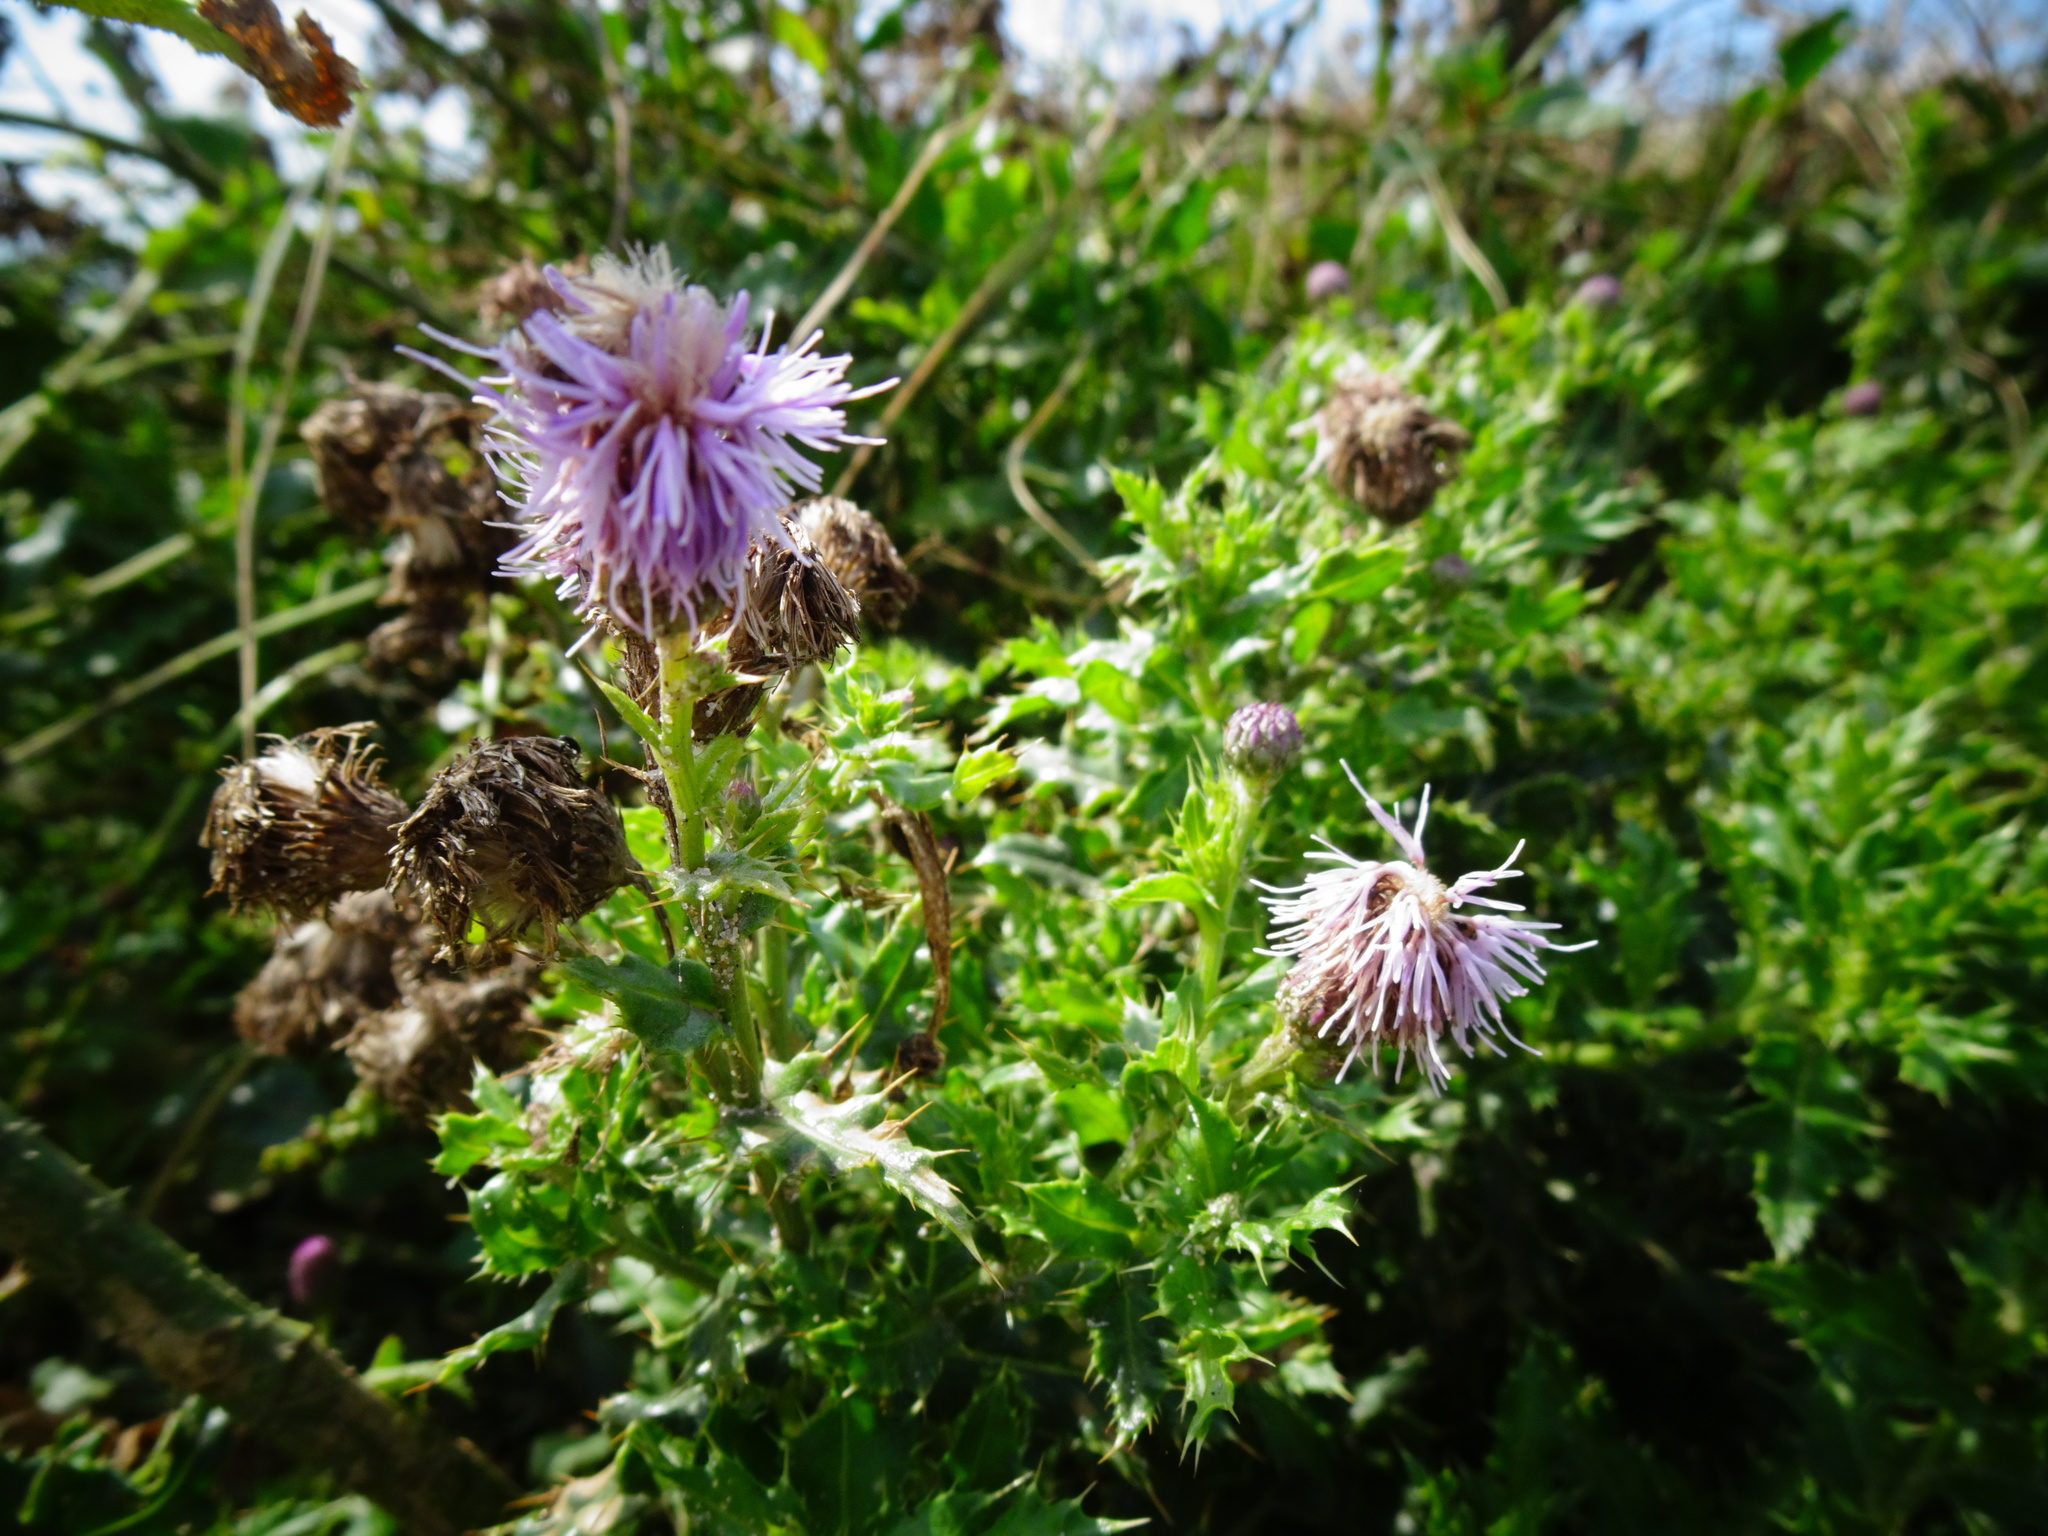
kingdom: Plantae
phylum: Tracheophyta
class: Magnoliopsida
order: Asterales
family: Asteraceae
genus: Cirsium
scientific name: Cirsium arvense
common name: Creeping thistle
